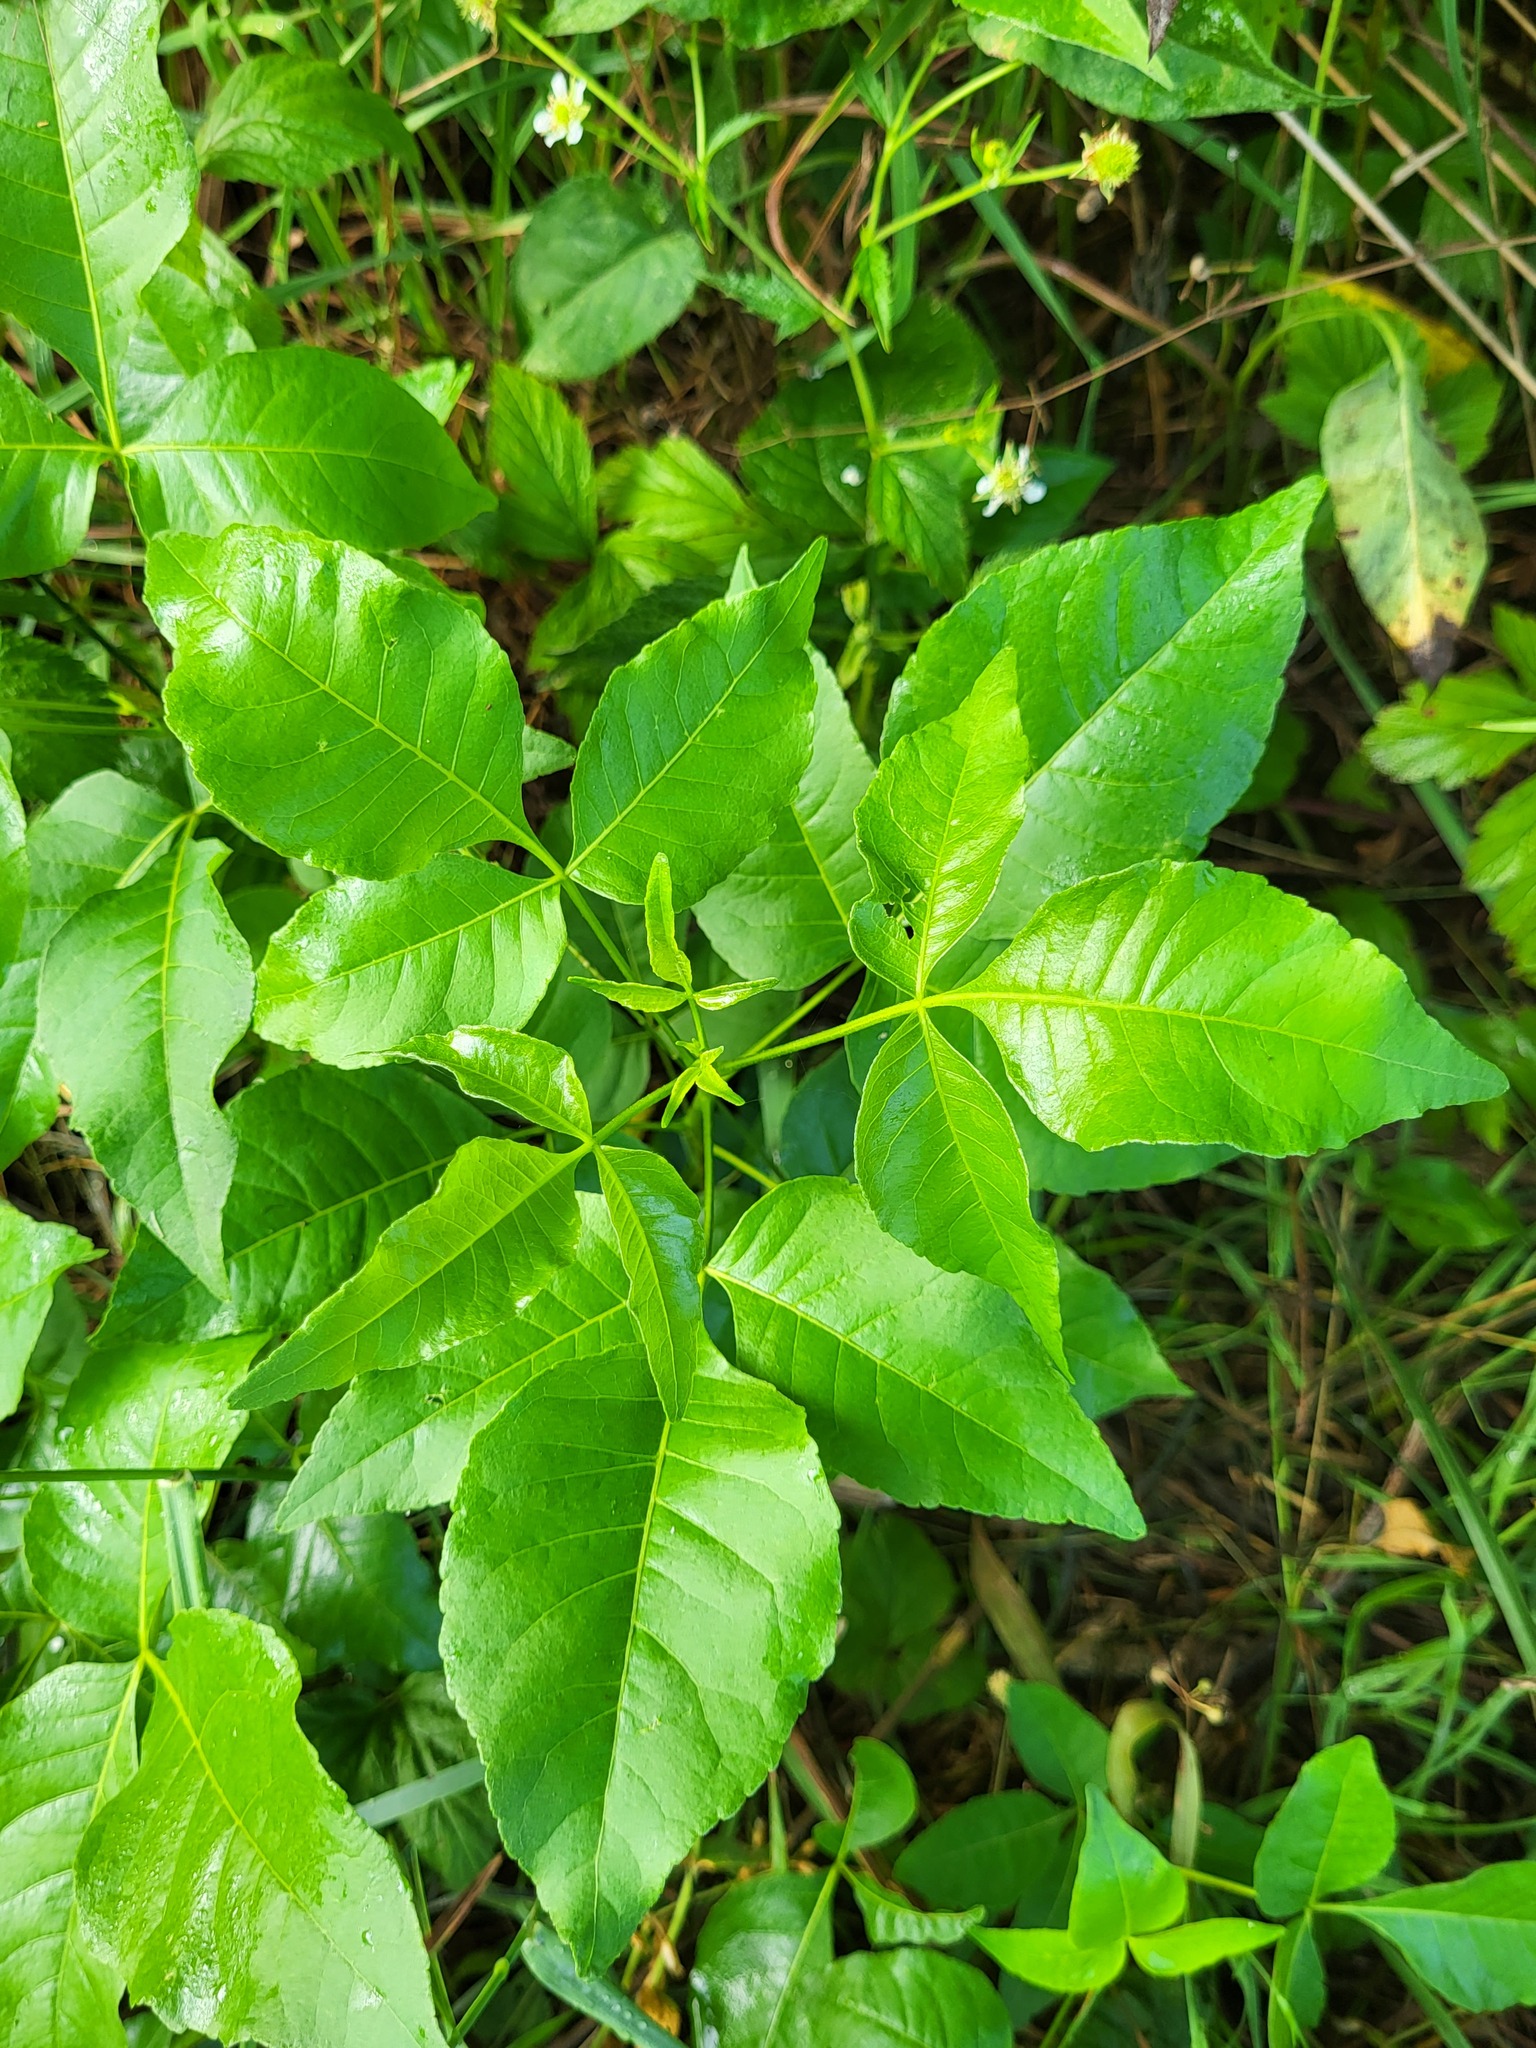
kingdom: Plantae
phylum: Tracheophyta
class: Magnoliopsida
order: Sapindales
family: Rutaceae
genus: Ptelea
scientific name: Ptelea trifoliata
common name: Common hop-tree
